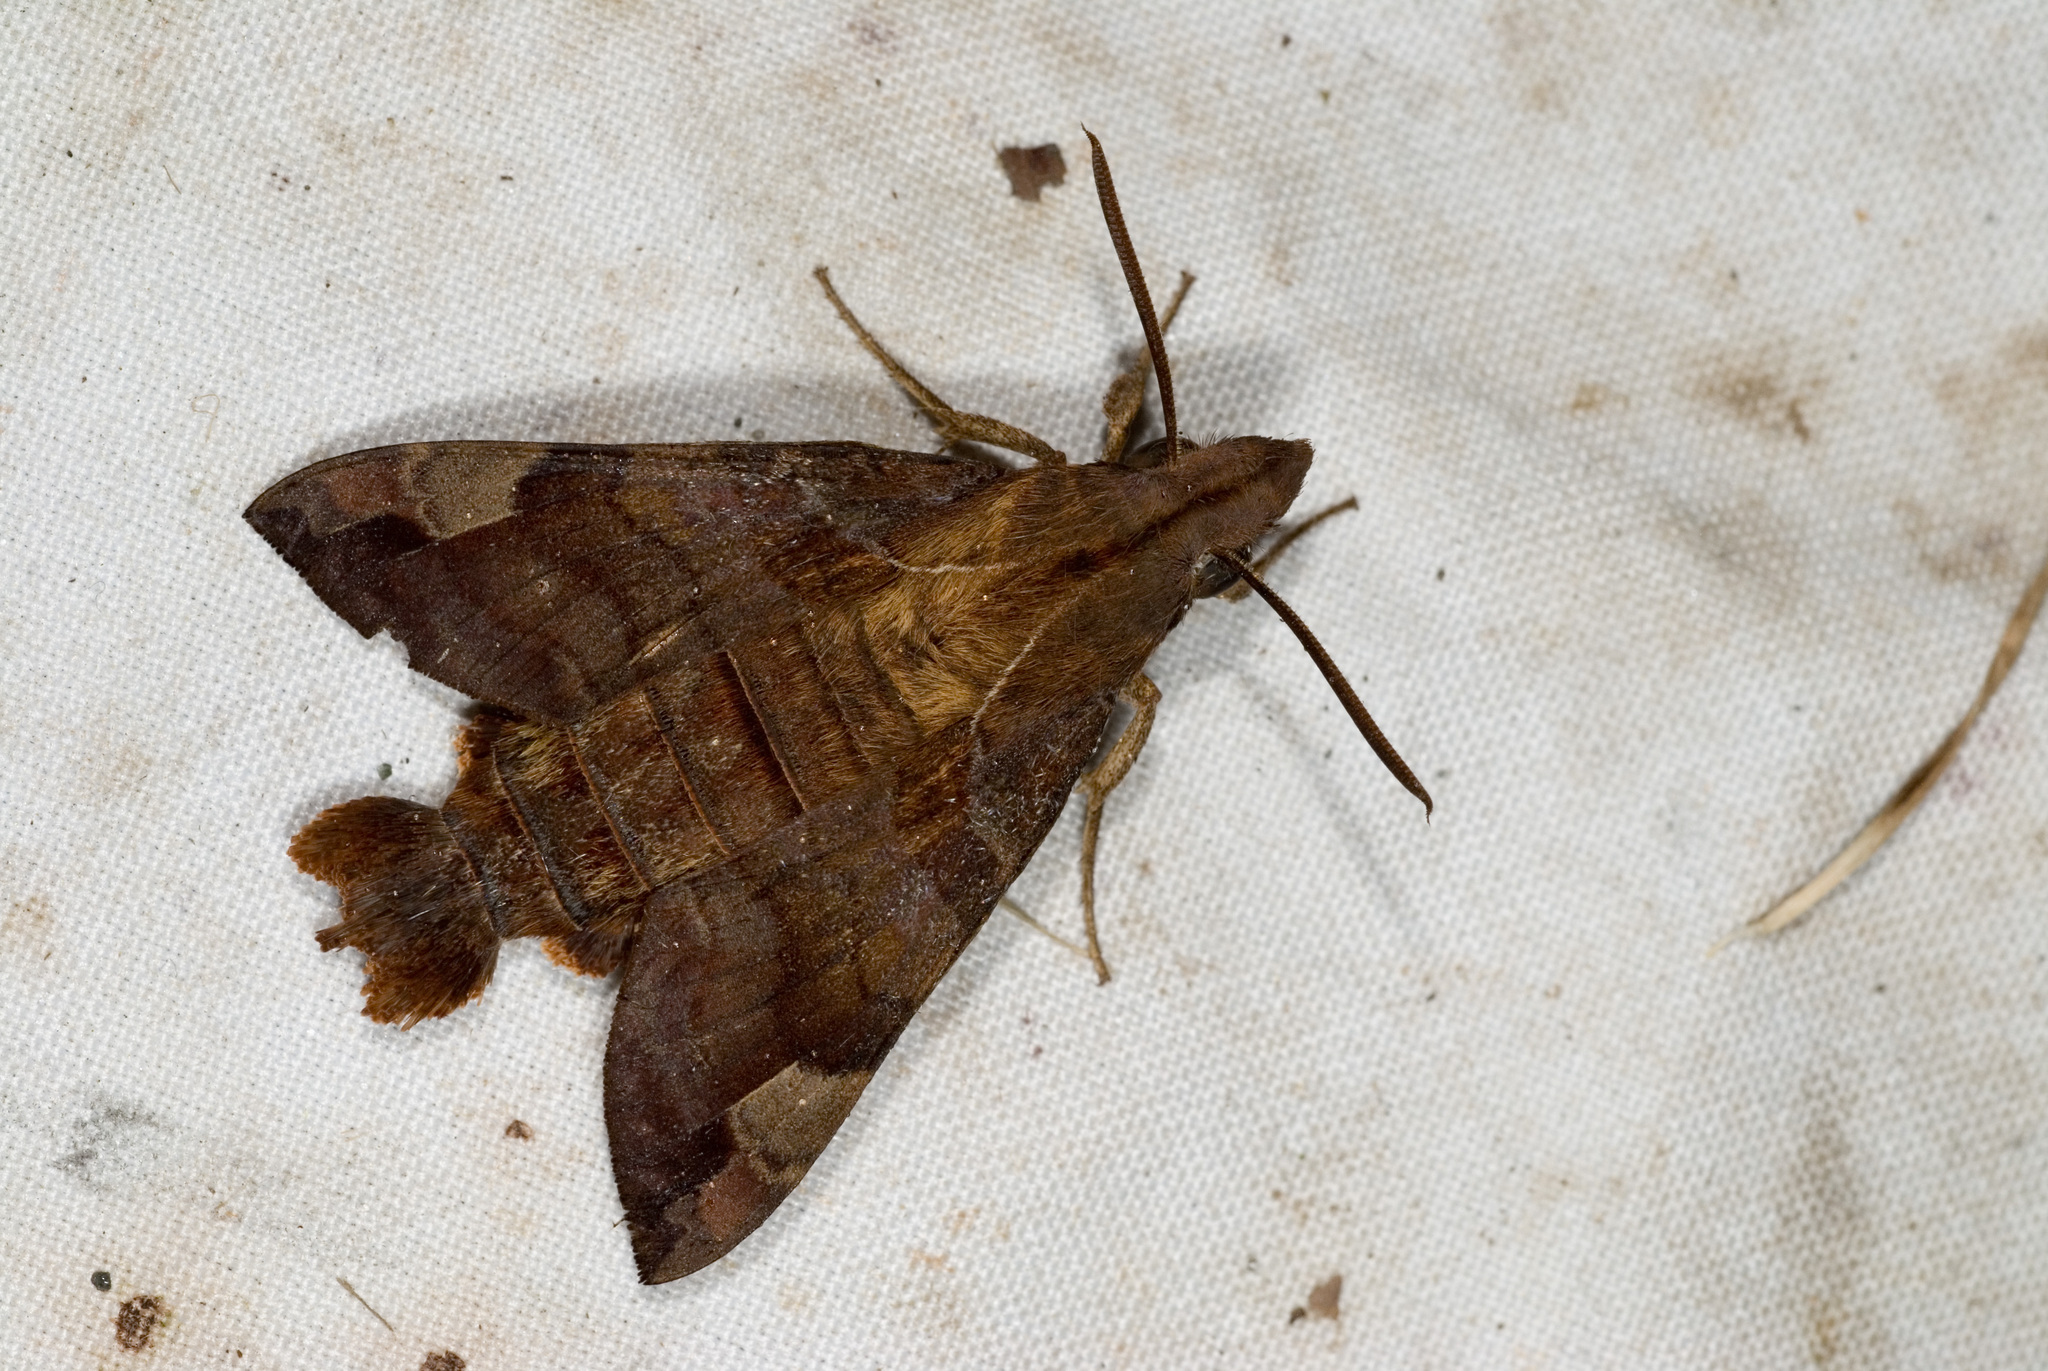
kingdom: Animalia
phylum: Arthropoda
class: Insecta
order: Lepidoptera
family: Sphingidae
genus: Macroglossum
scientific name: Macroglossum saga
